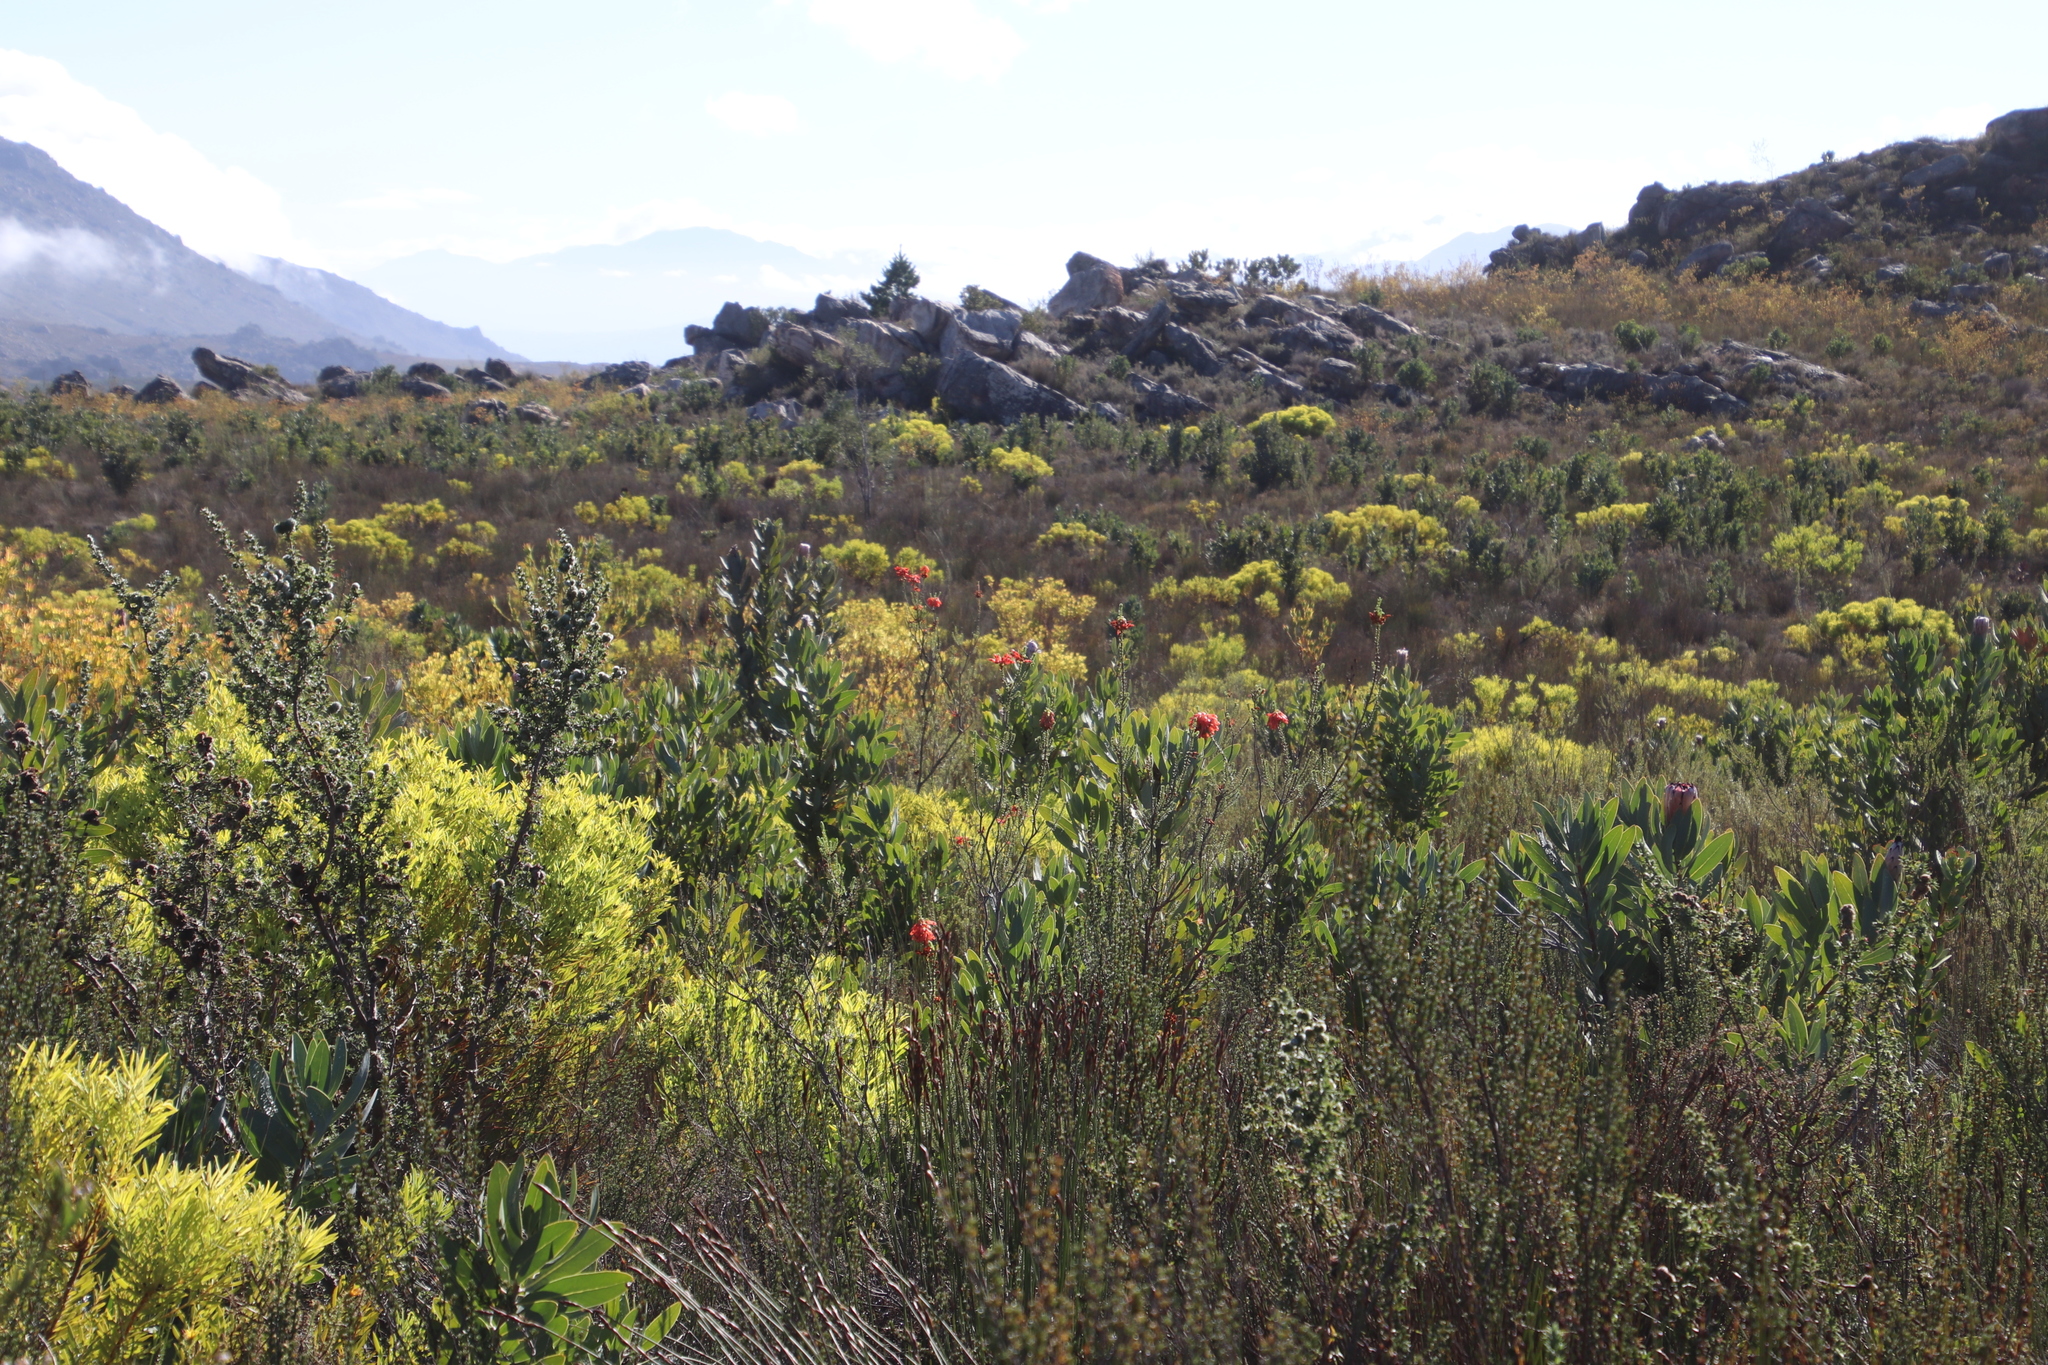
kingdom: Plantae
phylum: Tracheophyta
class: Magnoliopsida
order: Ericales
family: Ericaceae
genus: Erica
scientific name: Erica mammosa
